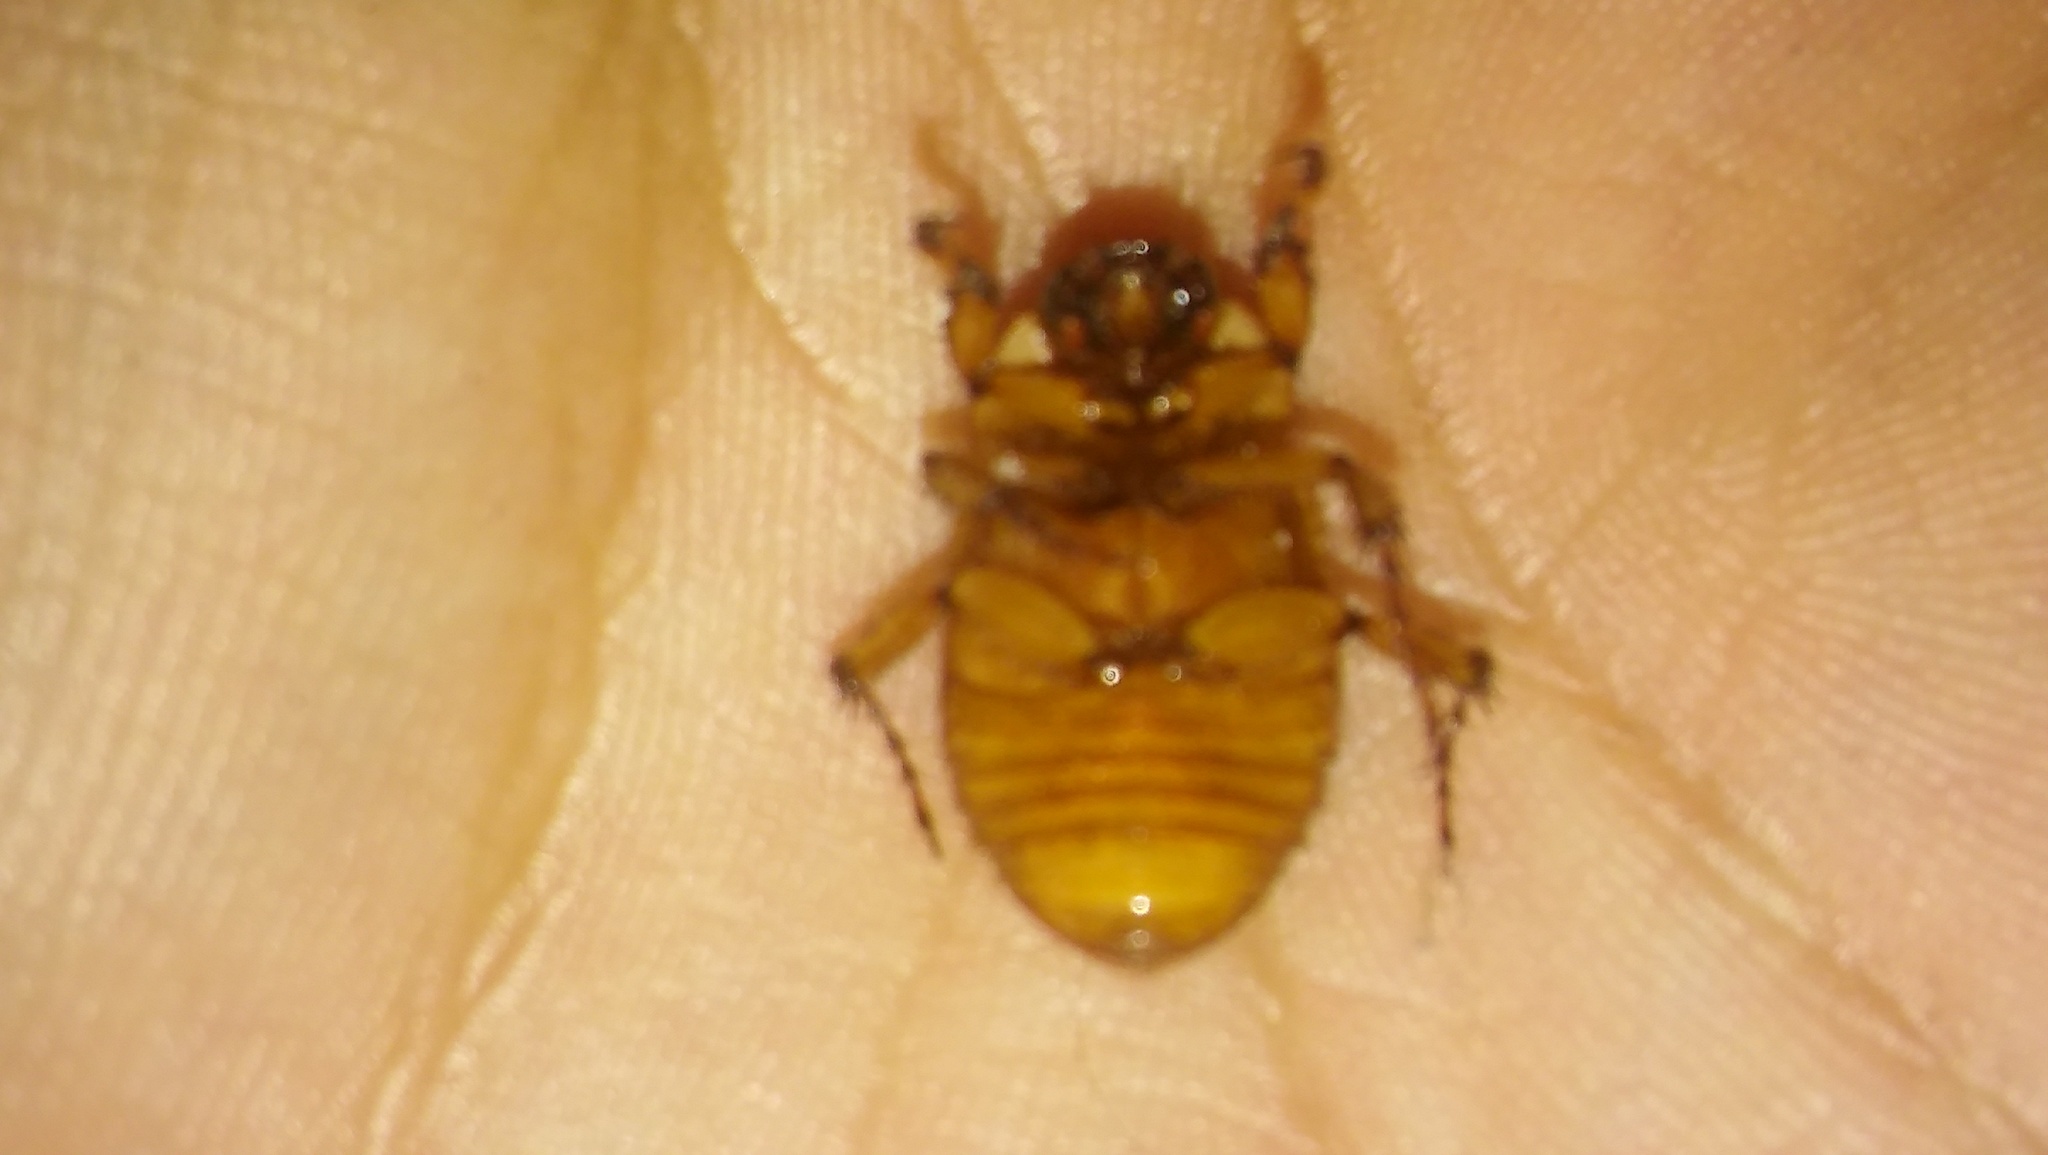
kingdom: Animalia
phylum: Arthropoda
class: Insecta
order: Coleoptera
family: Scarabaeidae
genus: Cyclocephala
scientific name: Cyclocephala signaticollis
